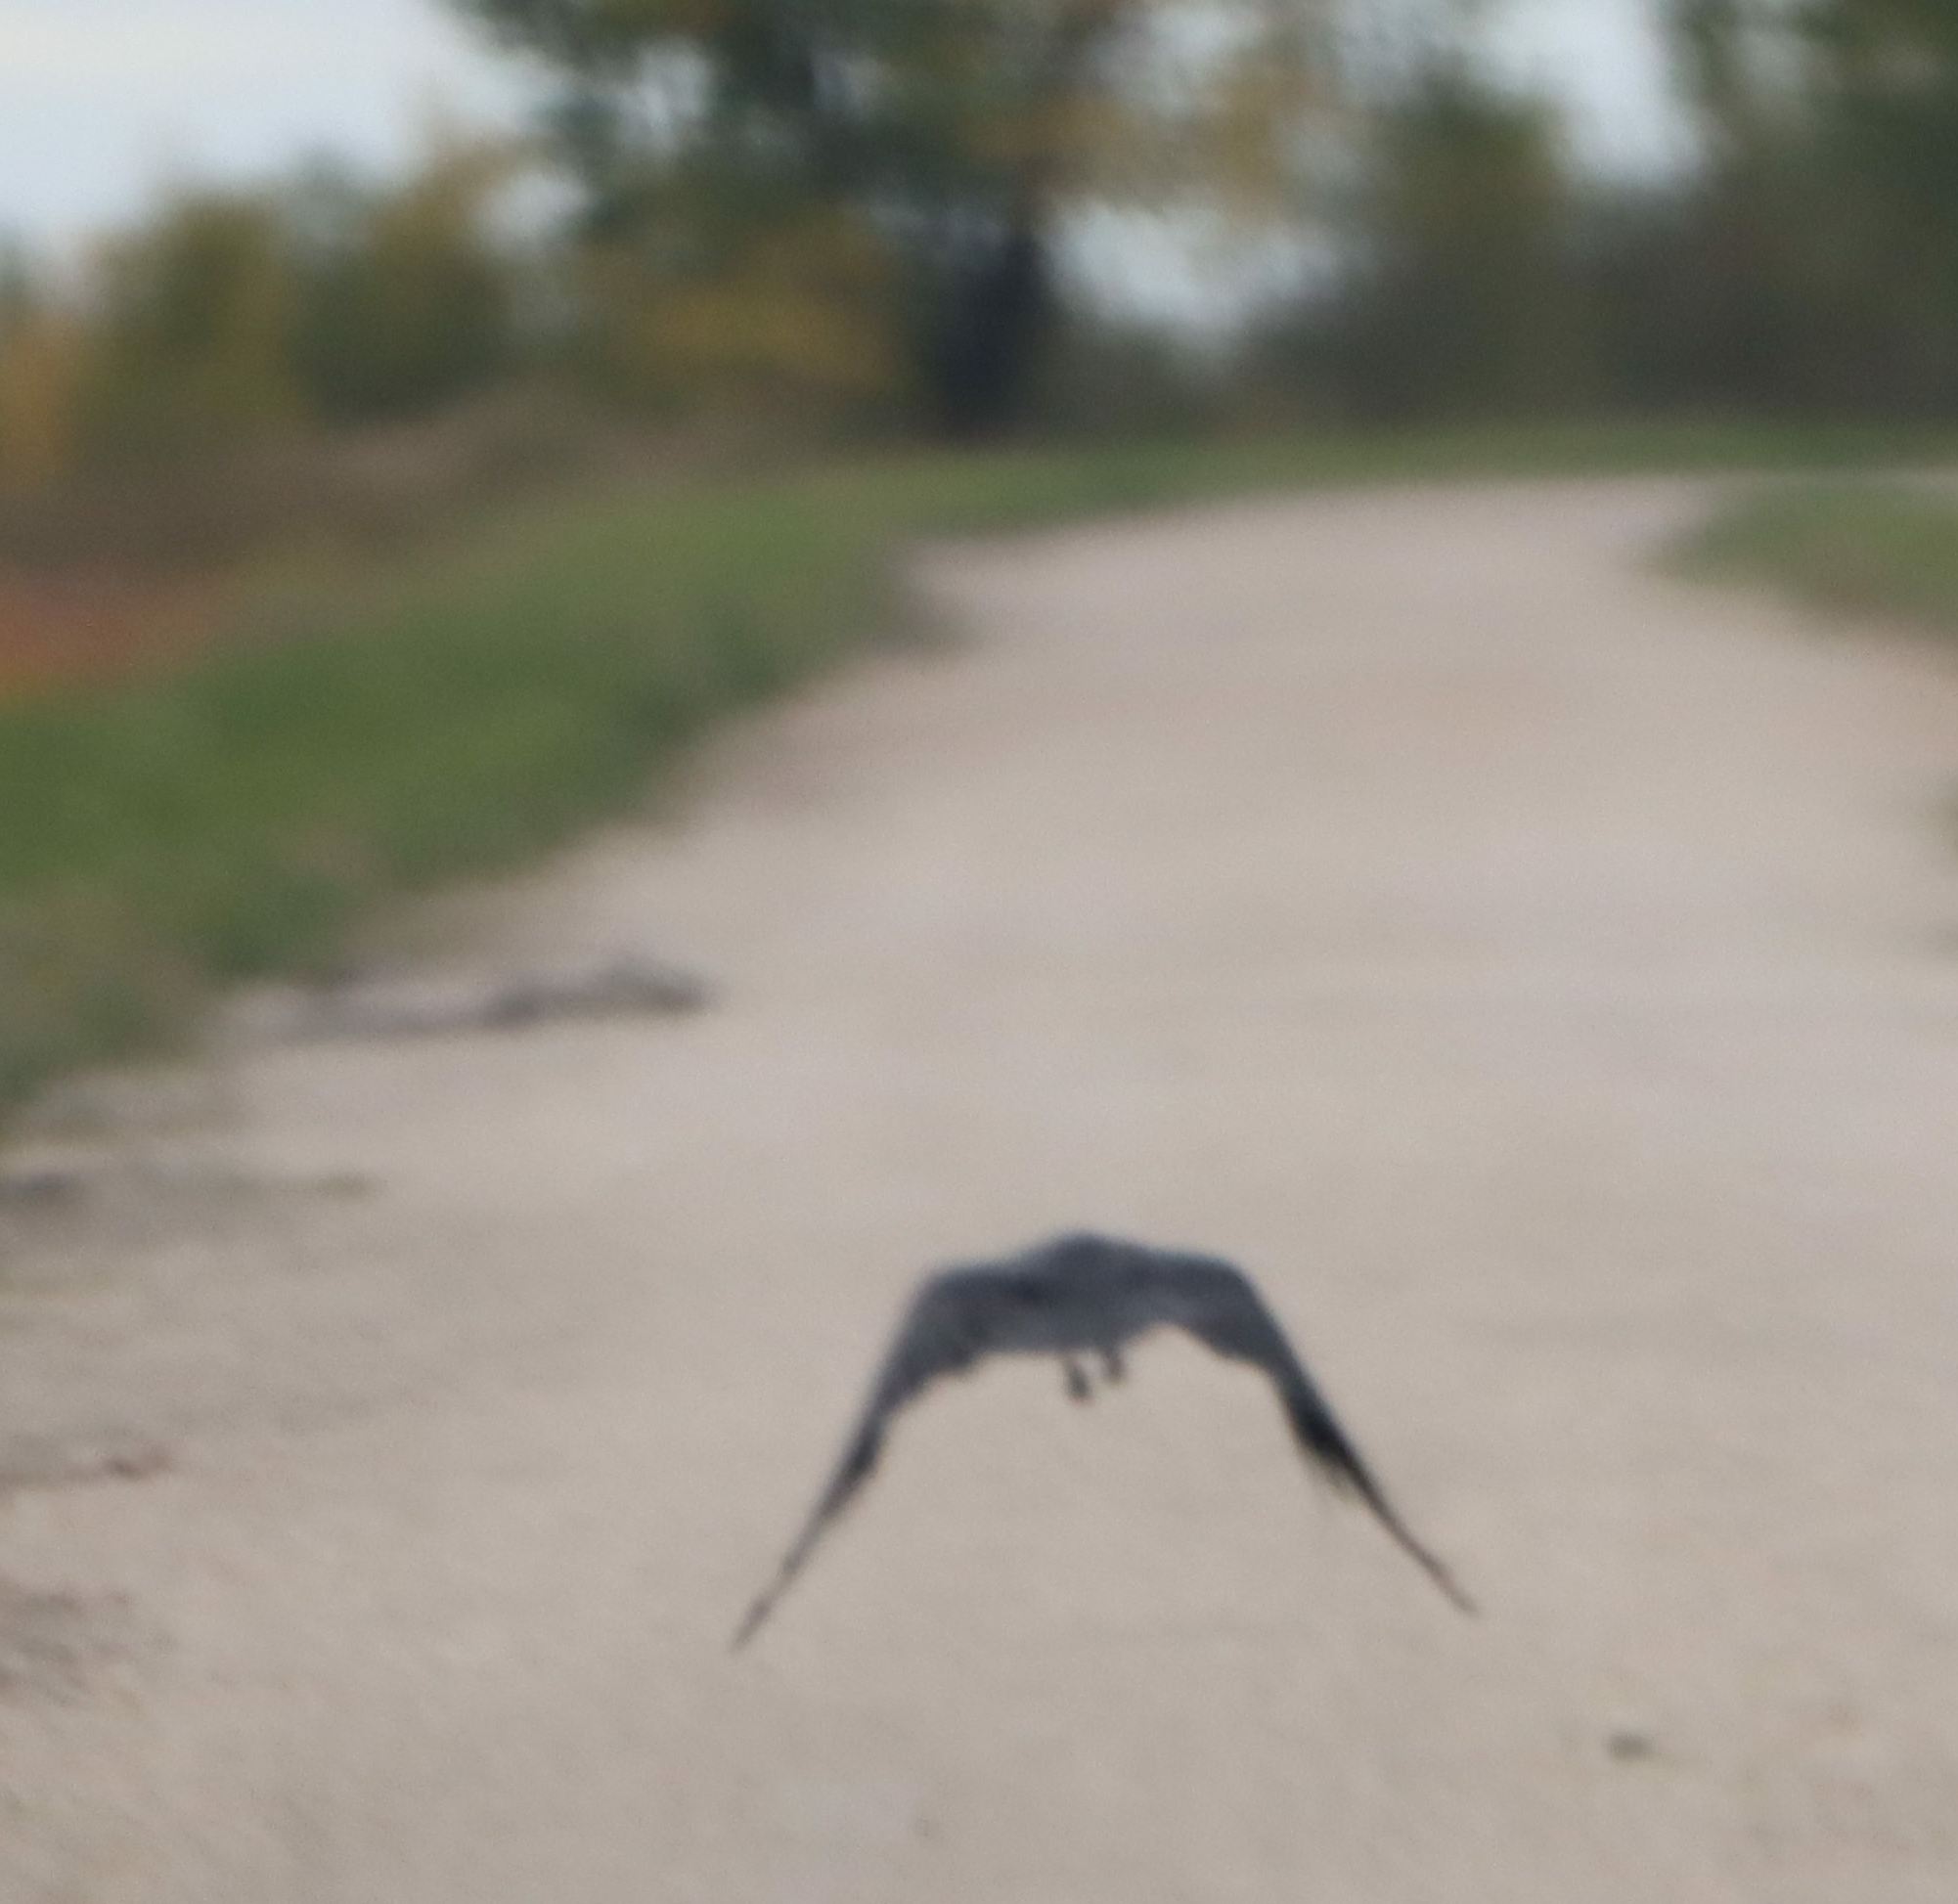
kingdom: Animalia
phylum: Chordata
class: Aves
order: Passeriformes
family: Corvidae
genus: Corvus
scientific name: Corvus brachyrhynchos
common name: American crow
